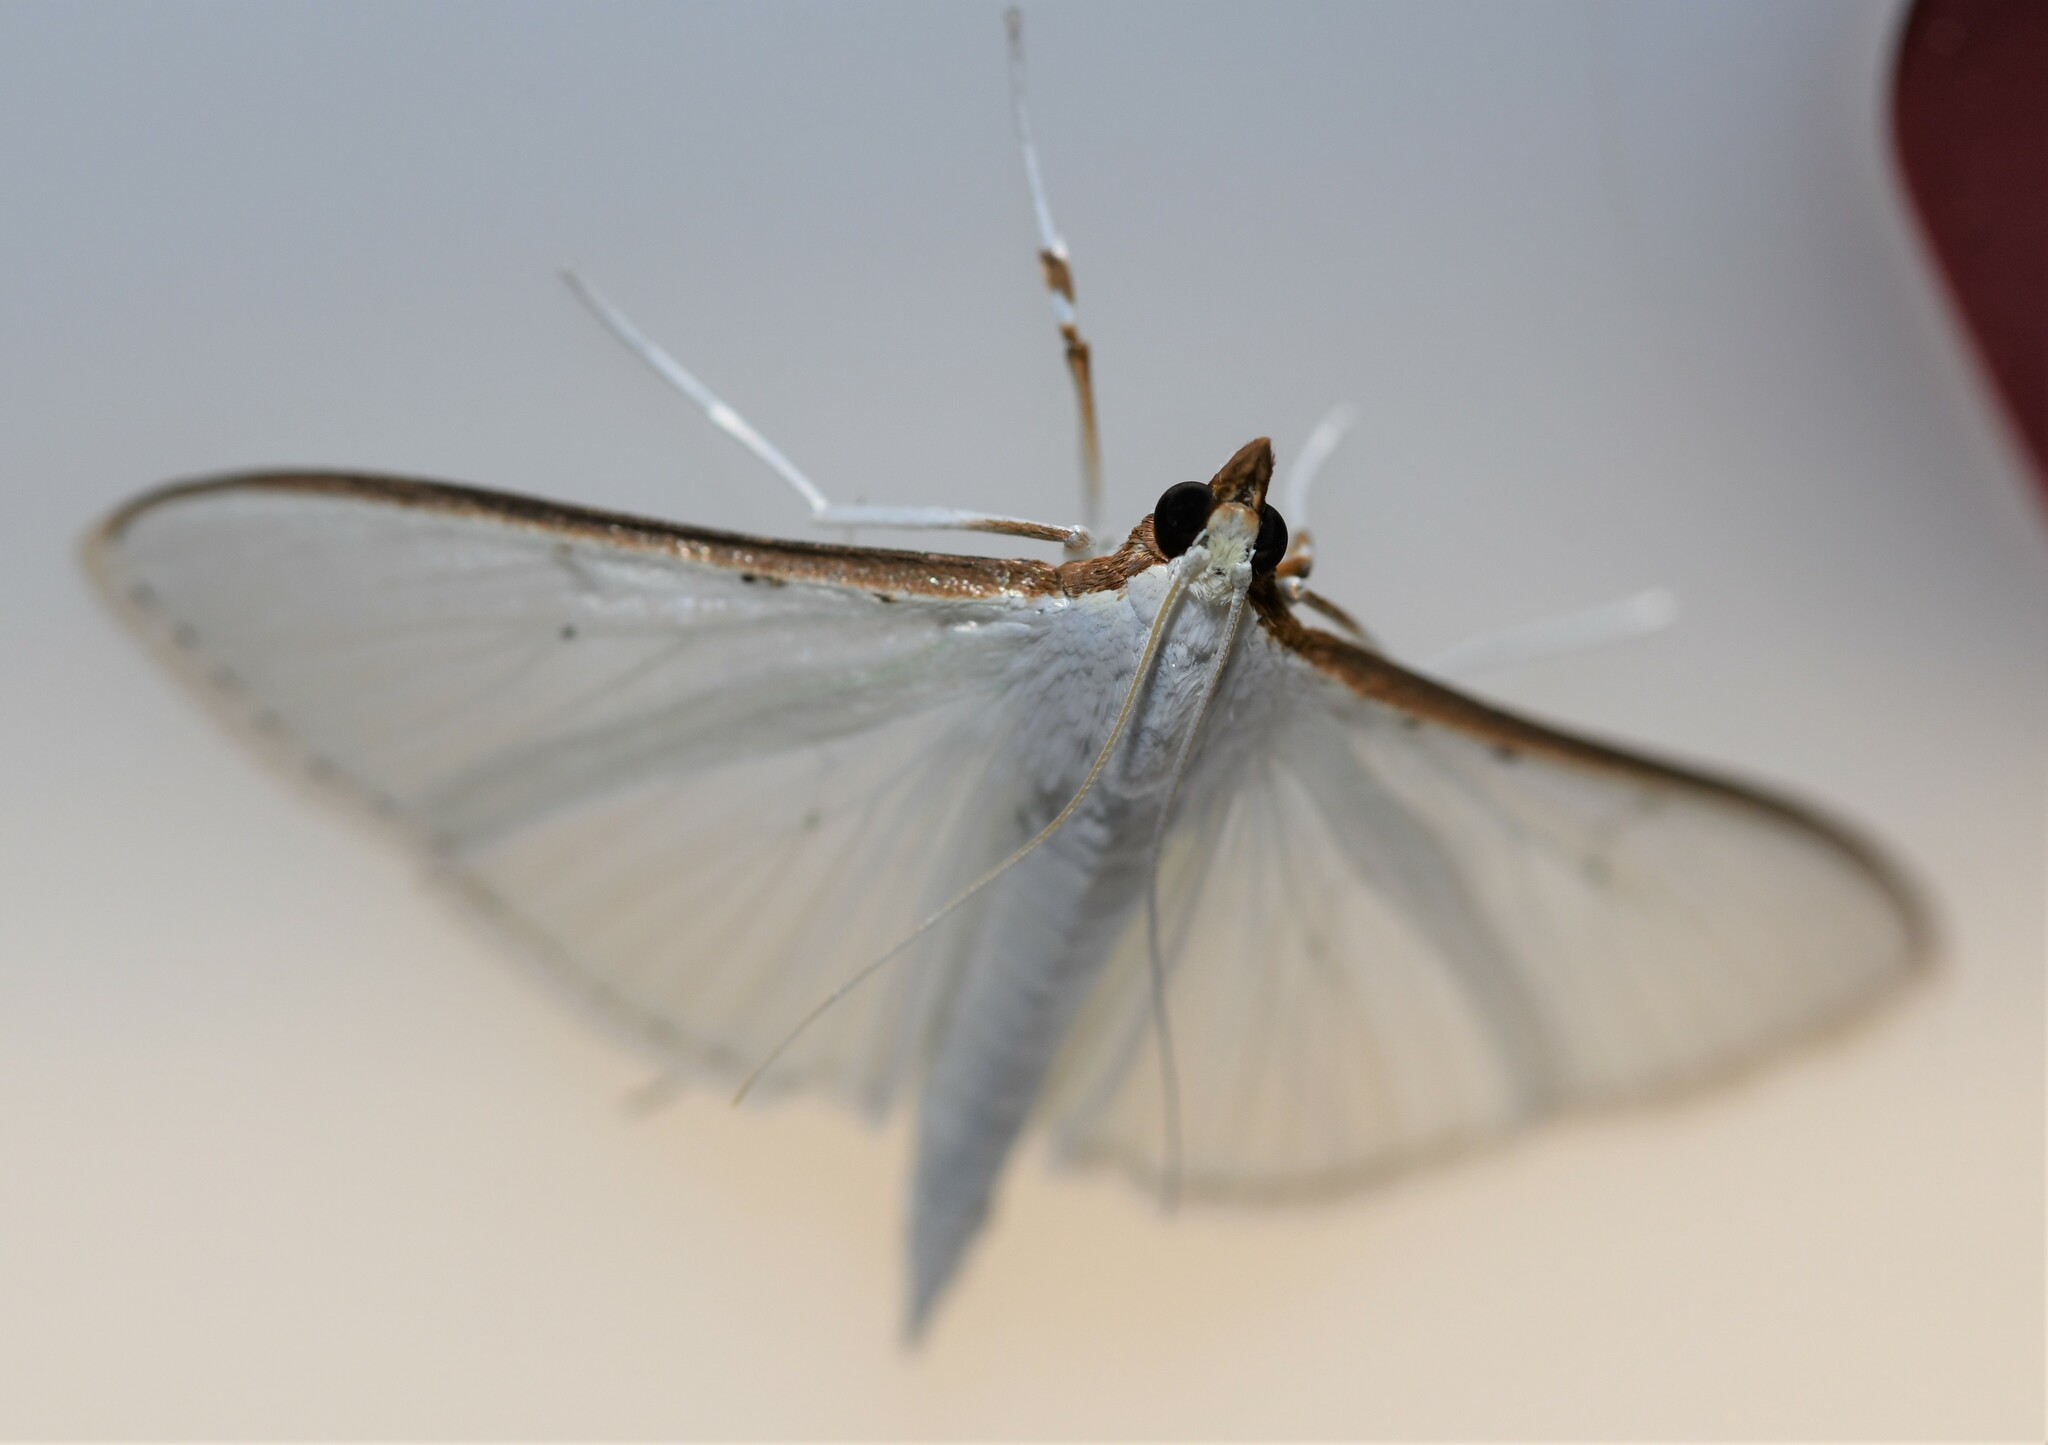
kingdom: Animalia
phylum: Arthropoda
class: Insecta
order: Lepidoptera
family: Crambidae
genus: Palpita
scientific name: Palpita vitrealis
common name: Olive-tree pearl
